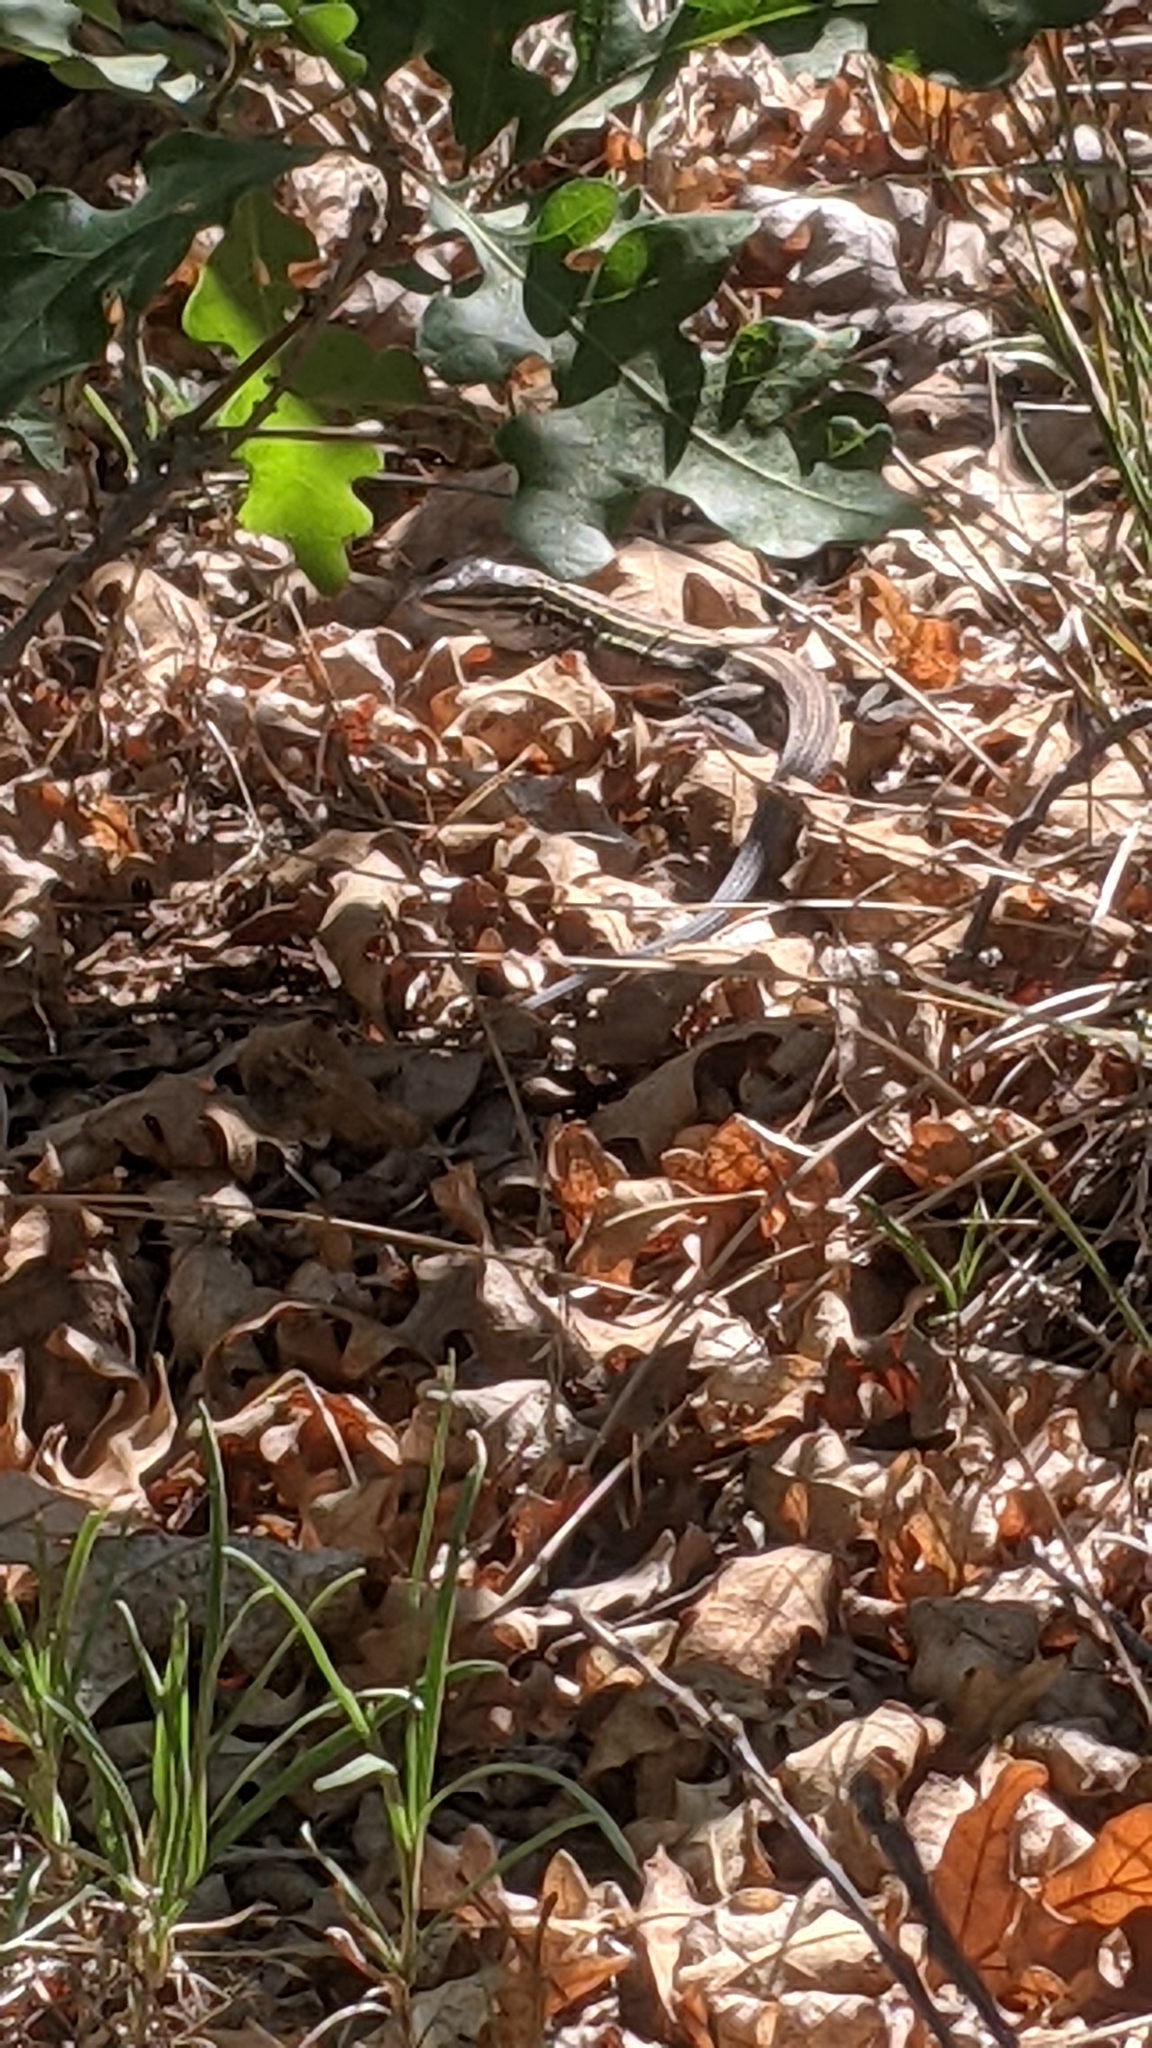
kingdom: Animalia
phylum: Chordata
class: Squamata
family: Teiidae
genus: Aspidoscelis
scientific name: Aspidoscelis velox
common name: Plateau striped whiptail
